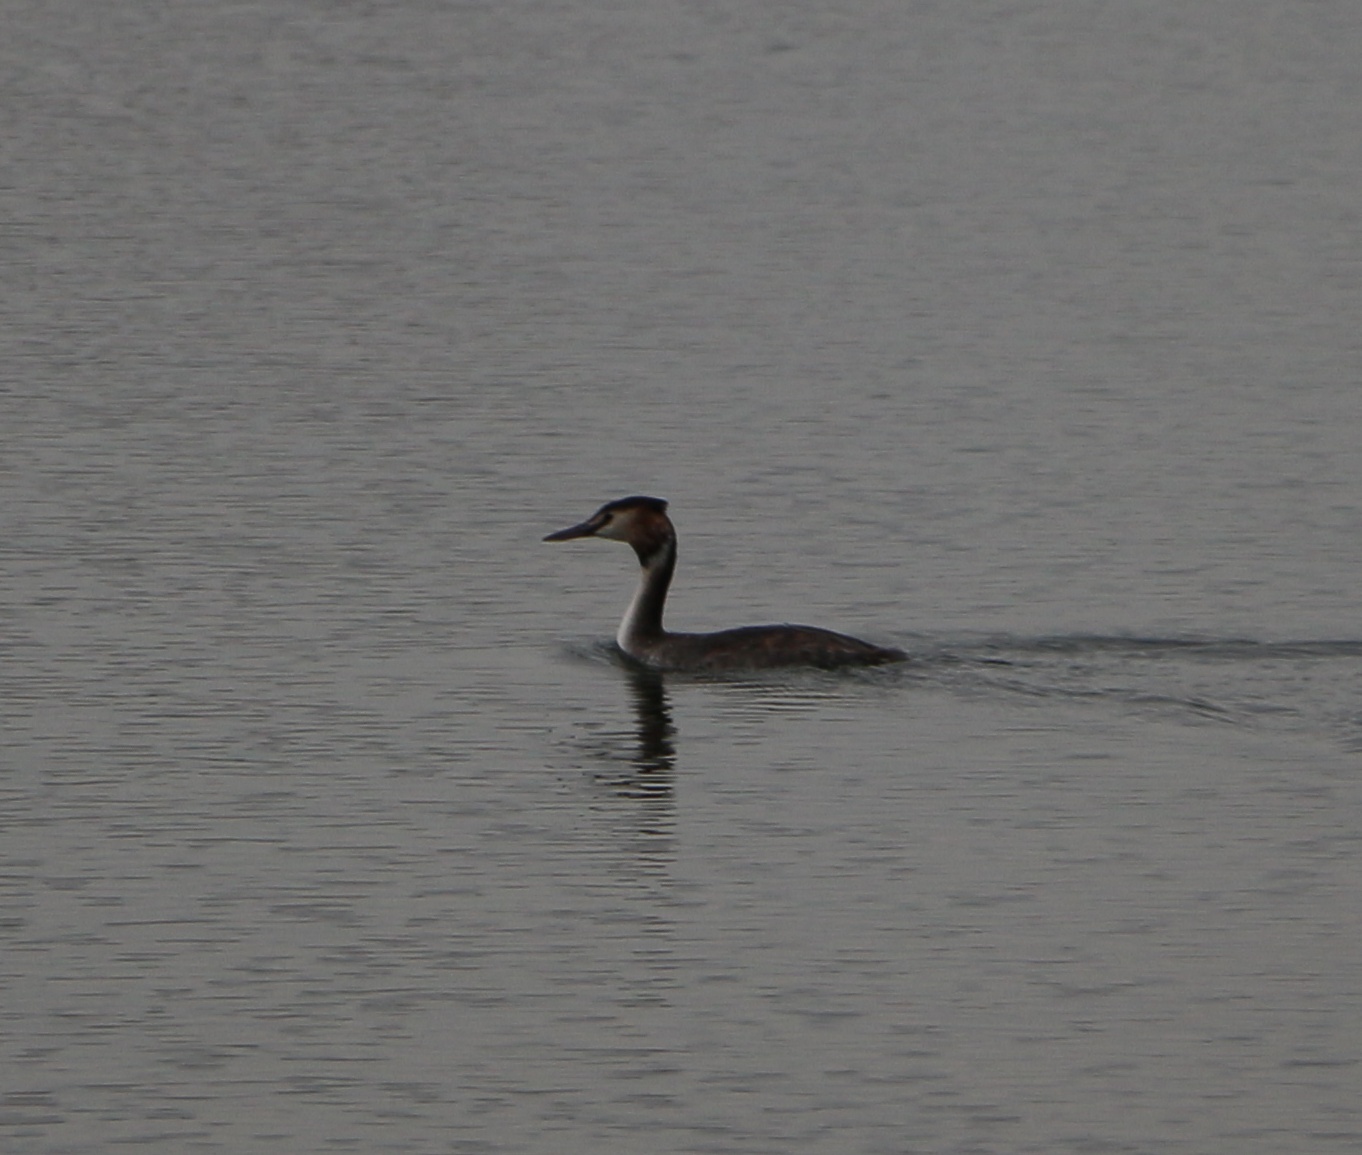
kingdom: Animalia
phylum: Chordata
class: Aves
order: Podicipediformes
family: Podicipedidae
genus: Podiceps
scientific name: Podiceps cristatus
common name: Great crested grebe
